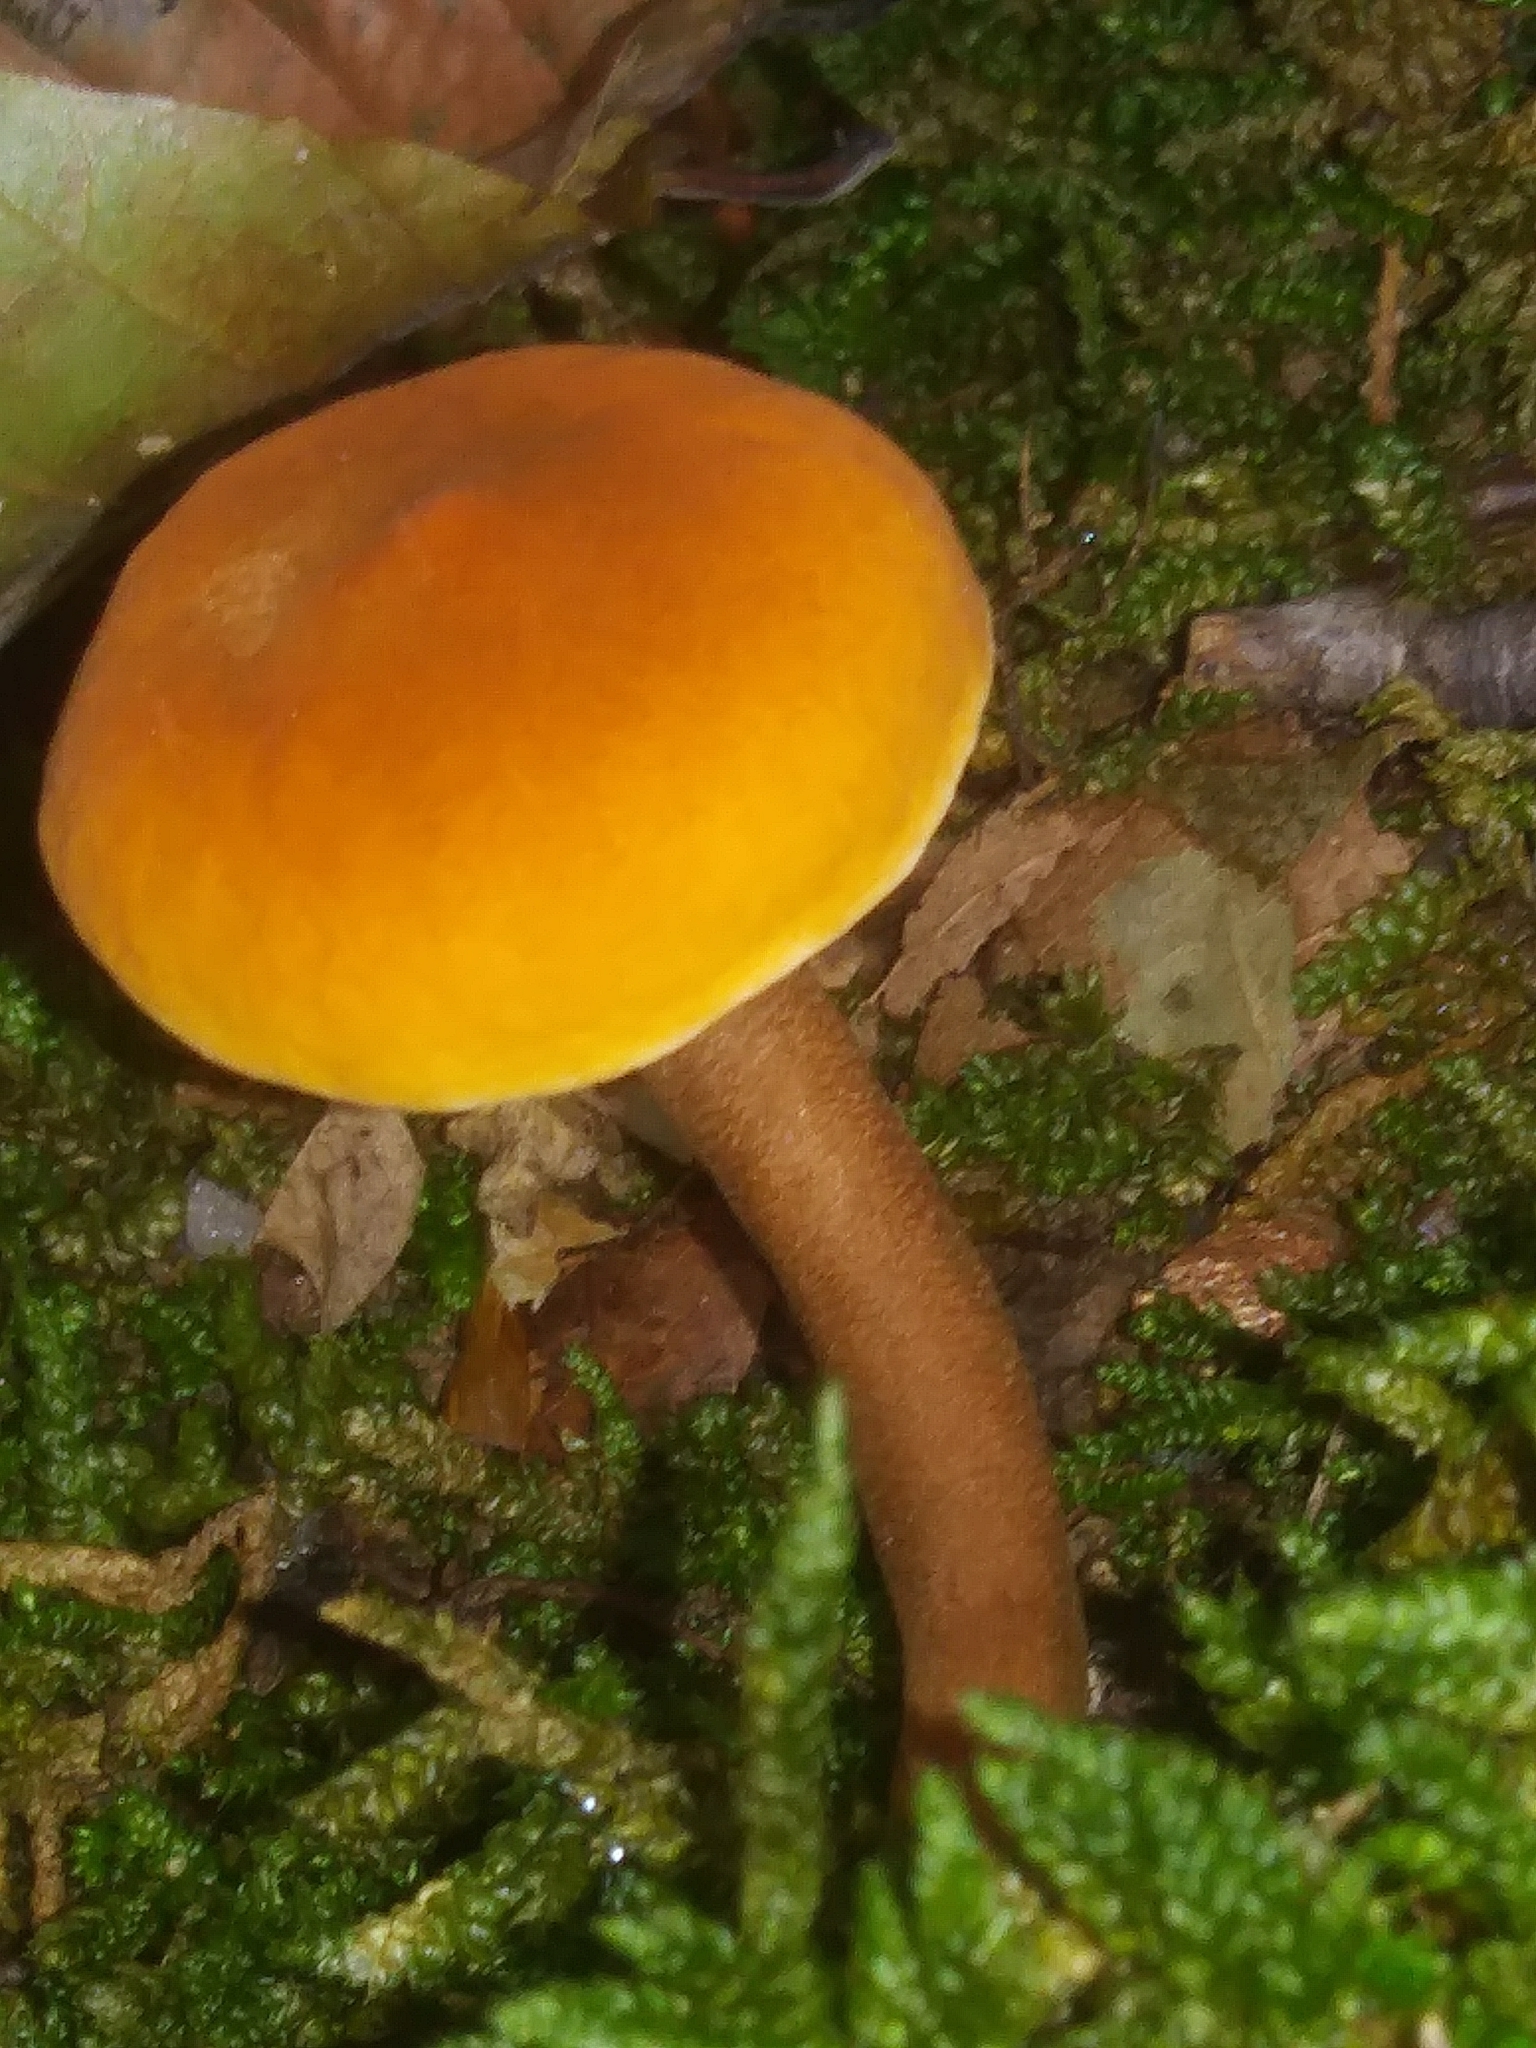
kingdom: Fungi
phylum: Basidiomycota
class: Agaricomycetes
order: Boletales
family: Gyroporaceae
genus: Gyroporus
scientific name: Gyroporus castaneus
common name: Chestnut bolete
